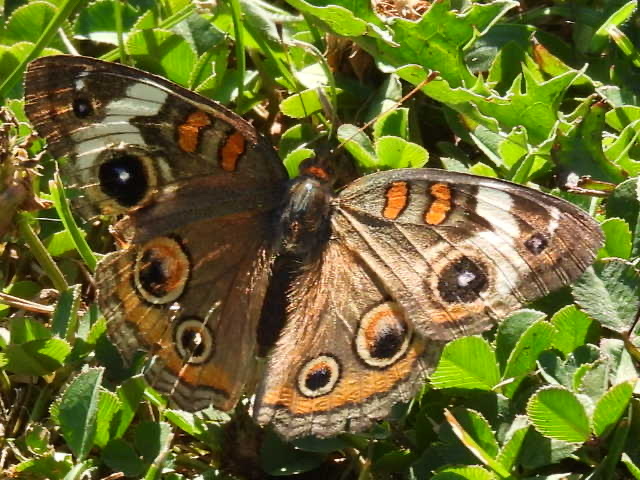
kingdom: Animalia
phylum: Arthropoda
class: Insecta
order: Lepidoptera
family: Nymphalidae
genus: Junonia
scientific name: Junonia coenia
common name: Common buckeye
